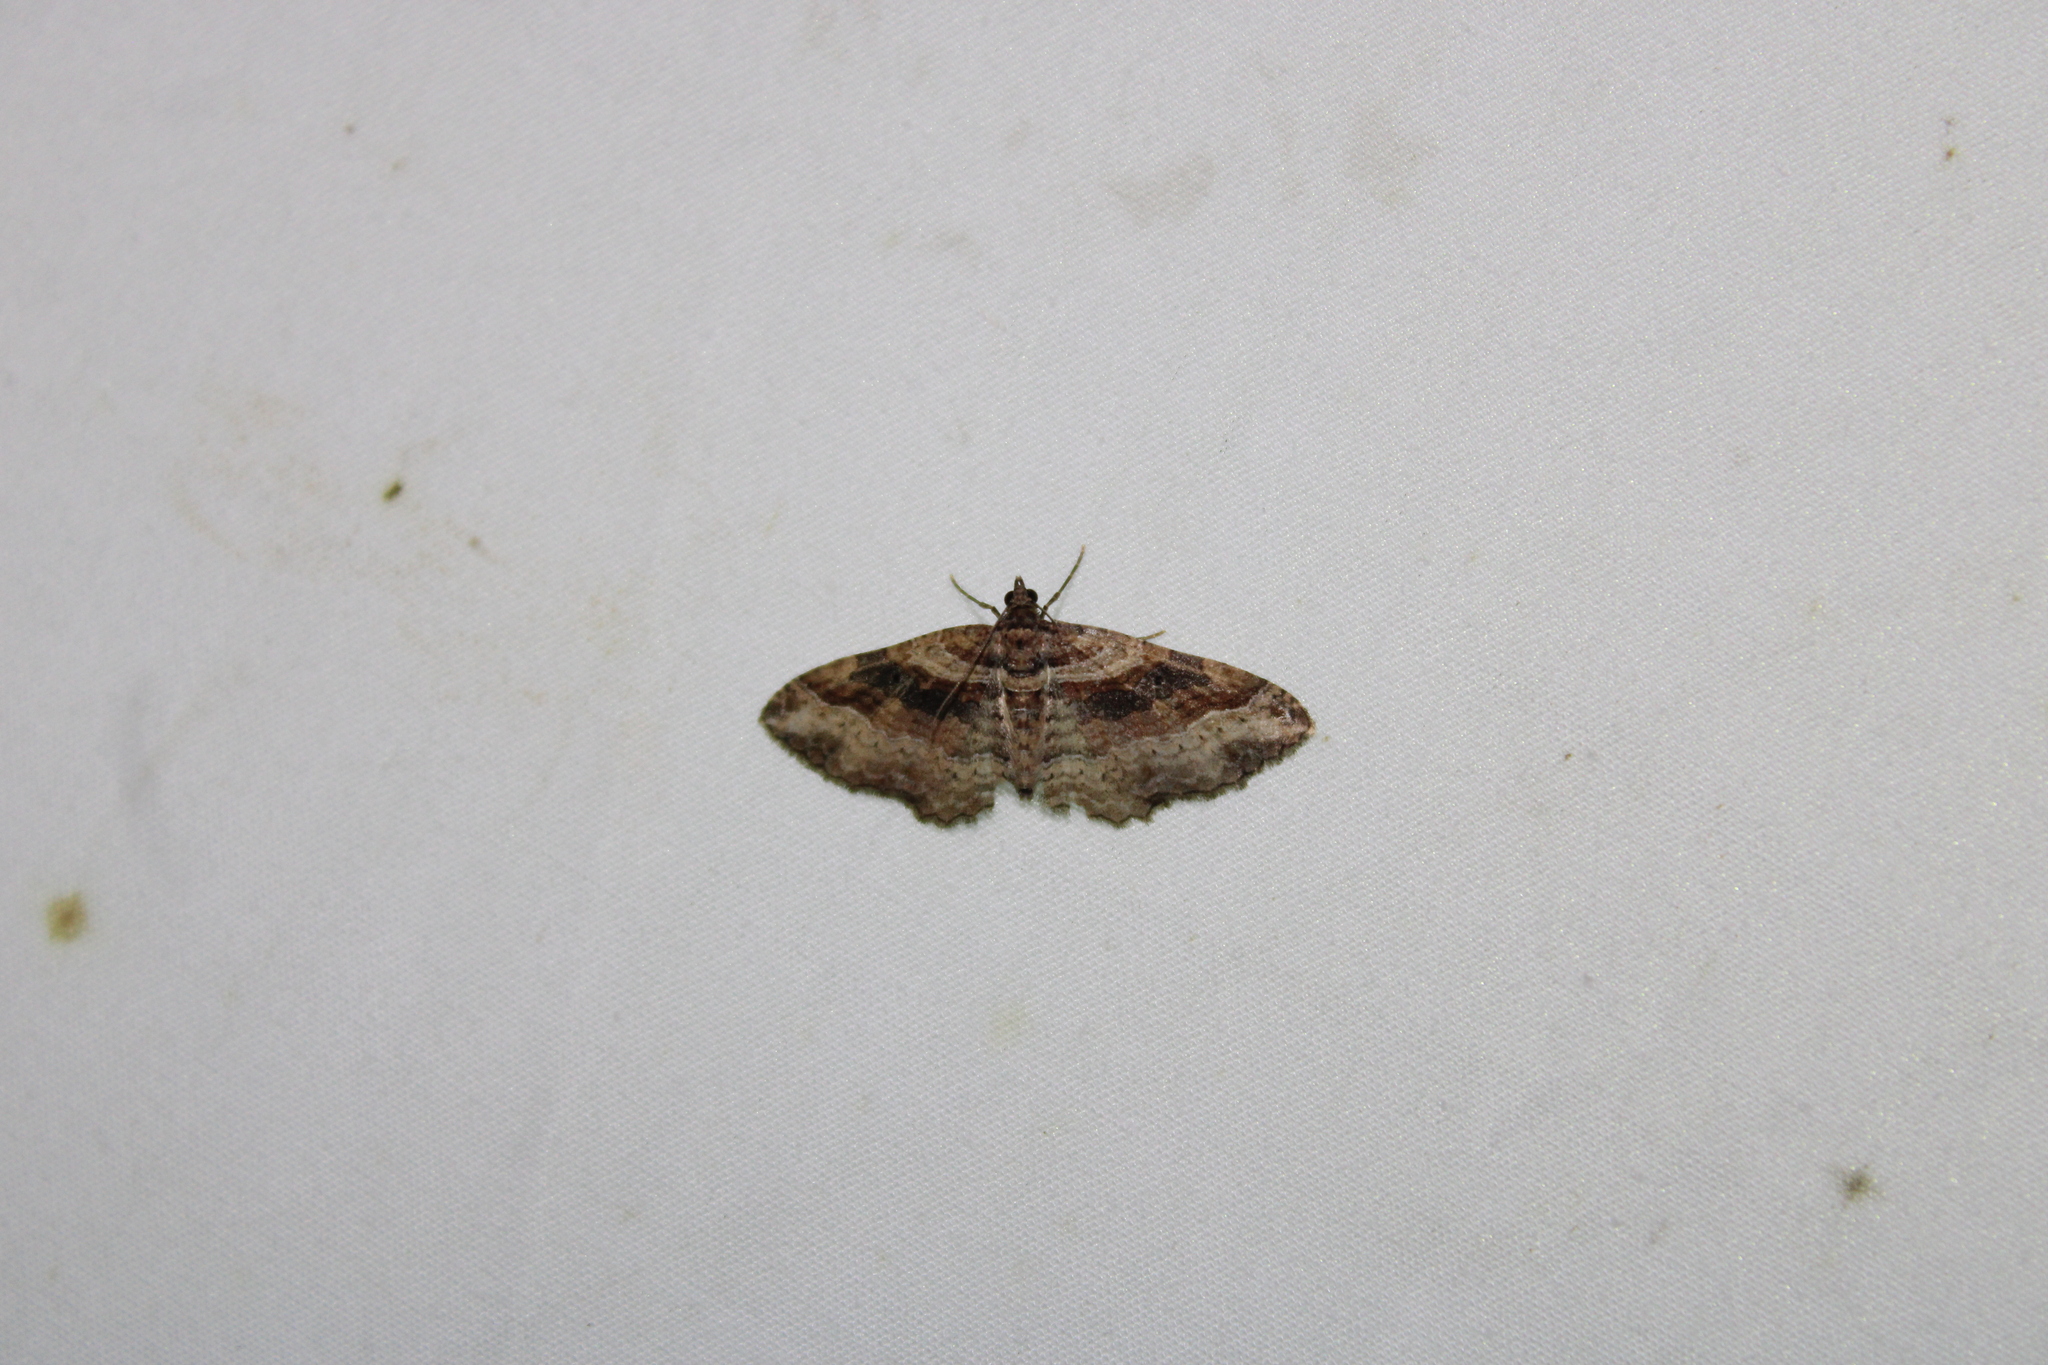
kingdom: Animalia
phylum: Arthropoda
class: Insecta
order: Lepidoptera
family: Geometridae
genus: Costaconvexa
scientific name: Costaconvexa centrostrigaria
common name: Bent-line carpet
